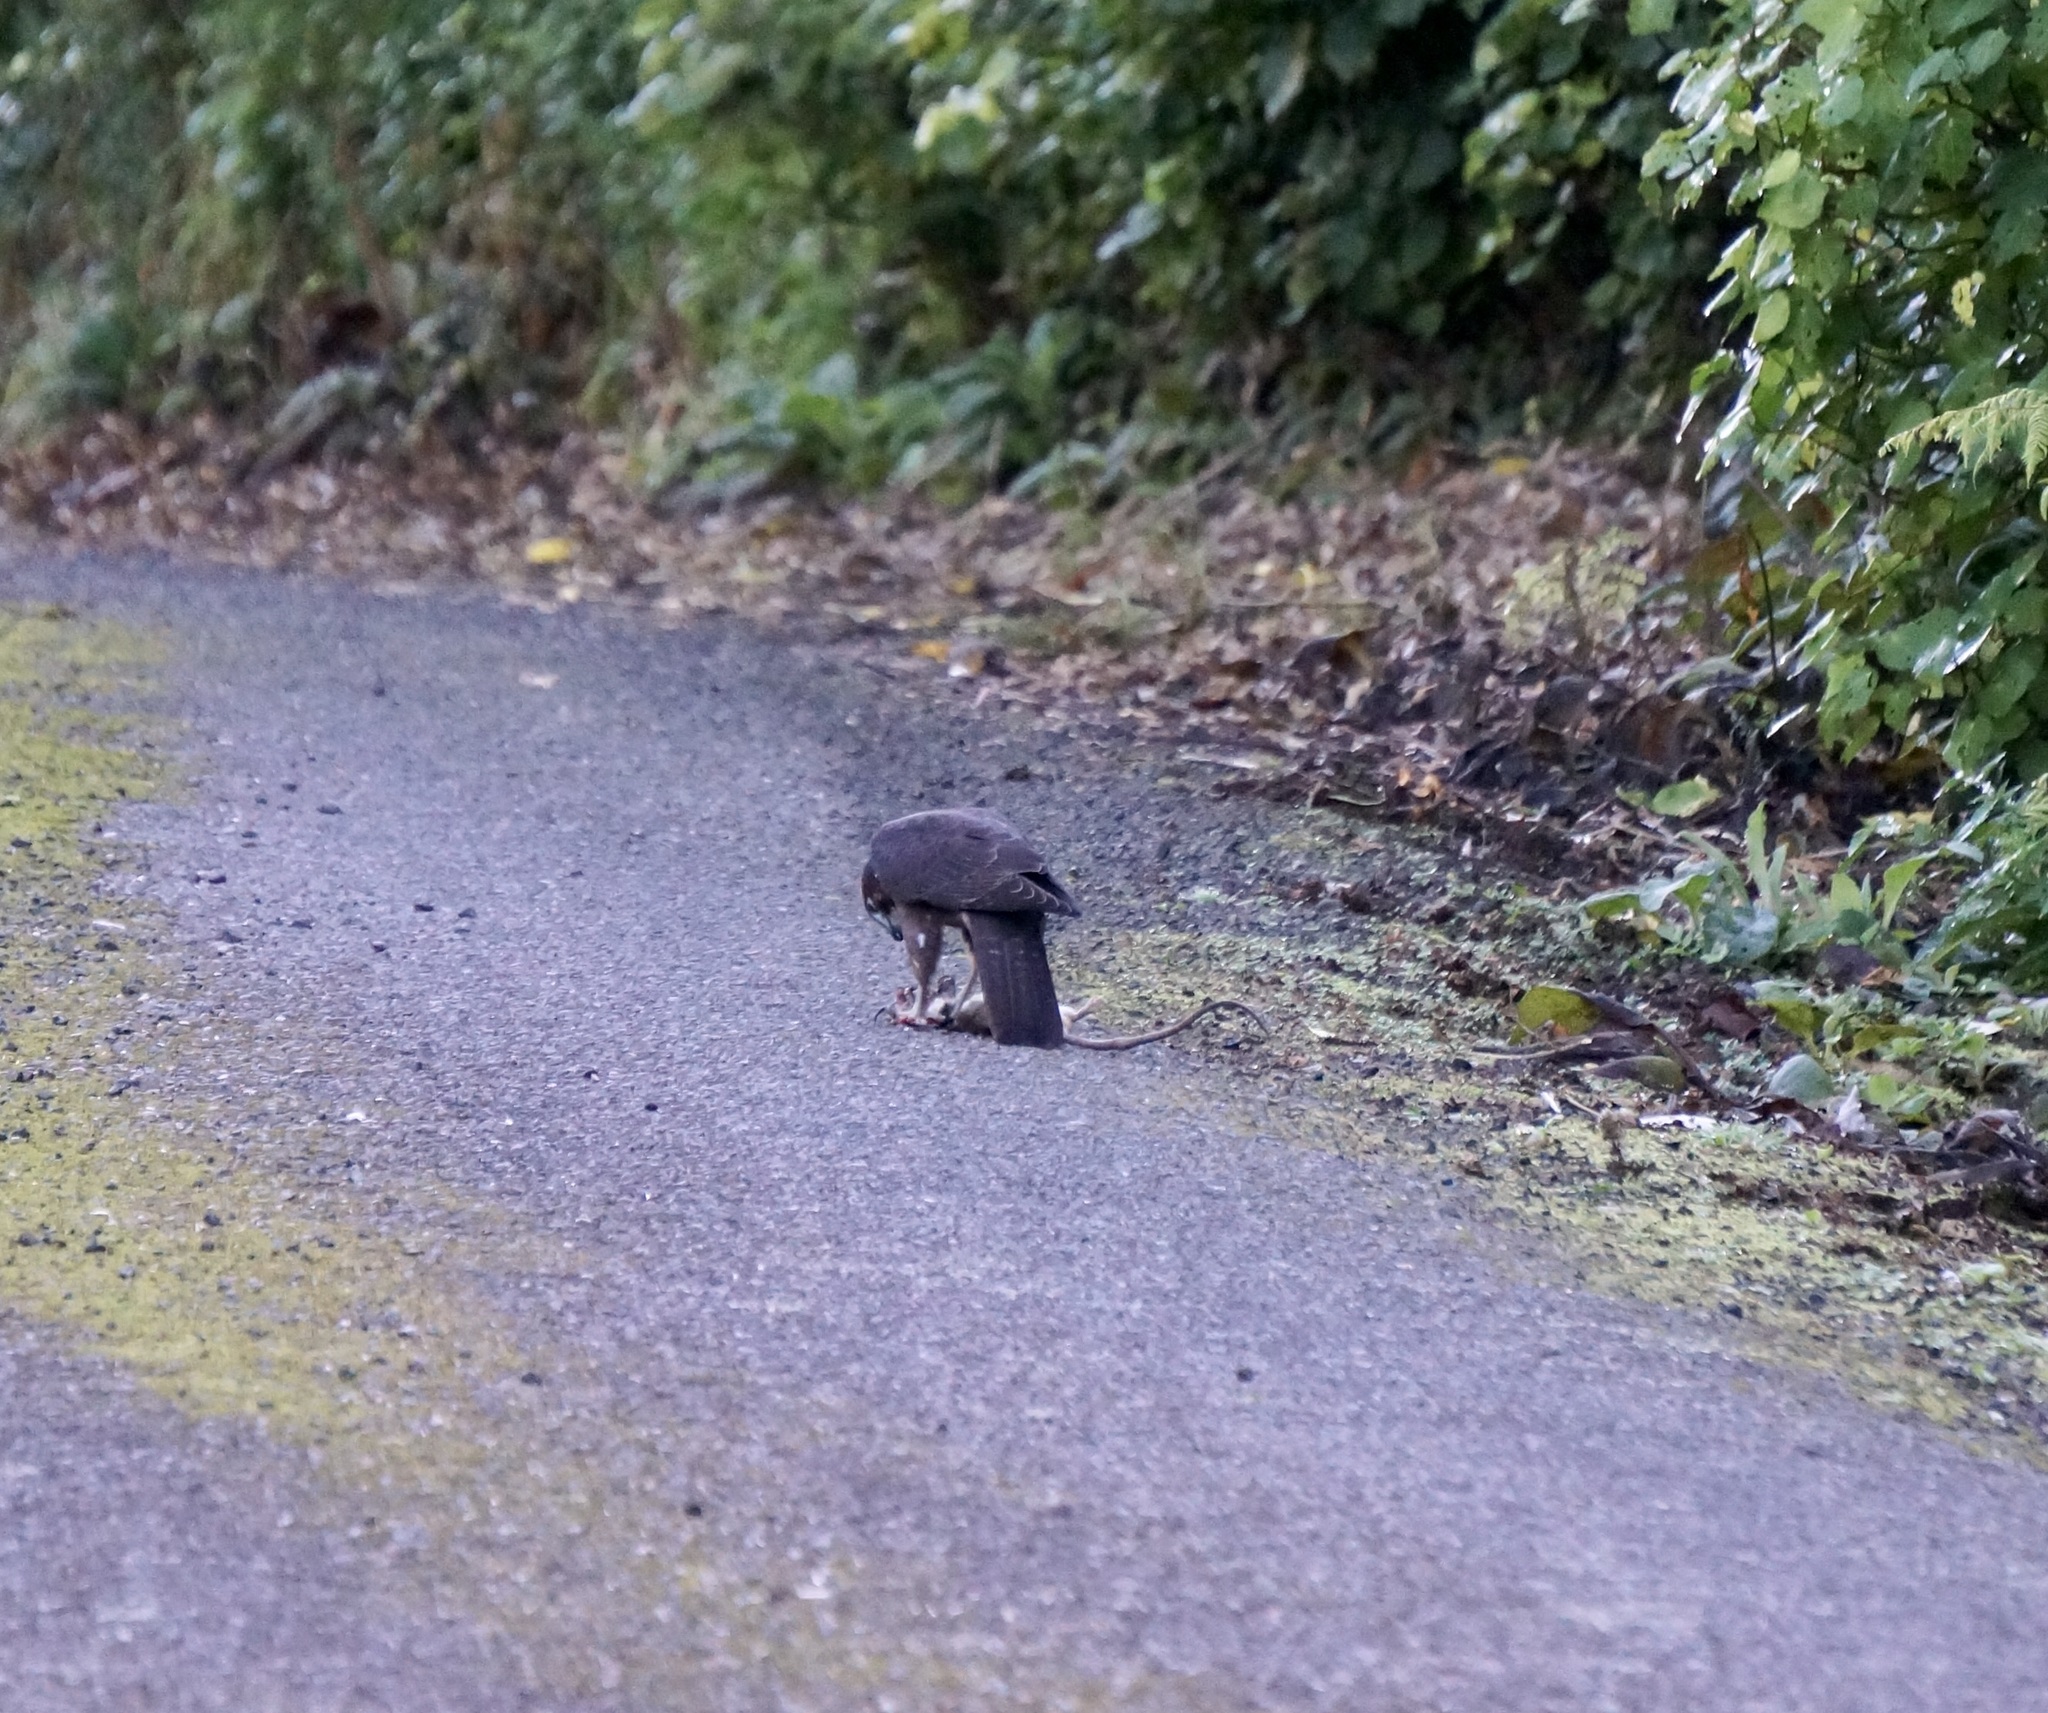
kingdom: Animalia
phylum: Chordata
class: Aves
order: Falconiformes
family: Falconidae
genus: Falco
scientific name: Falco novaeseelandiae
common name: New zealand falcon
